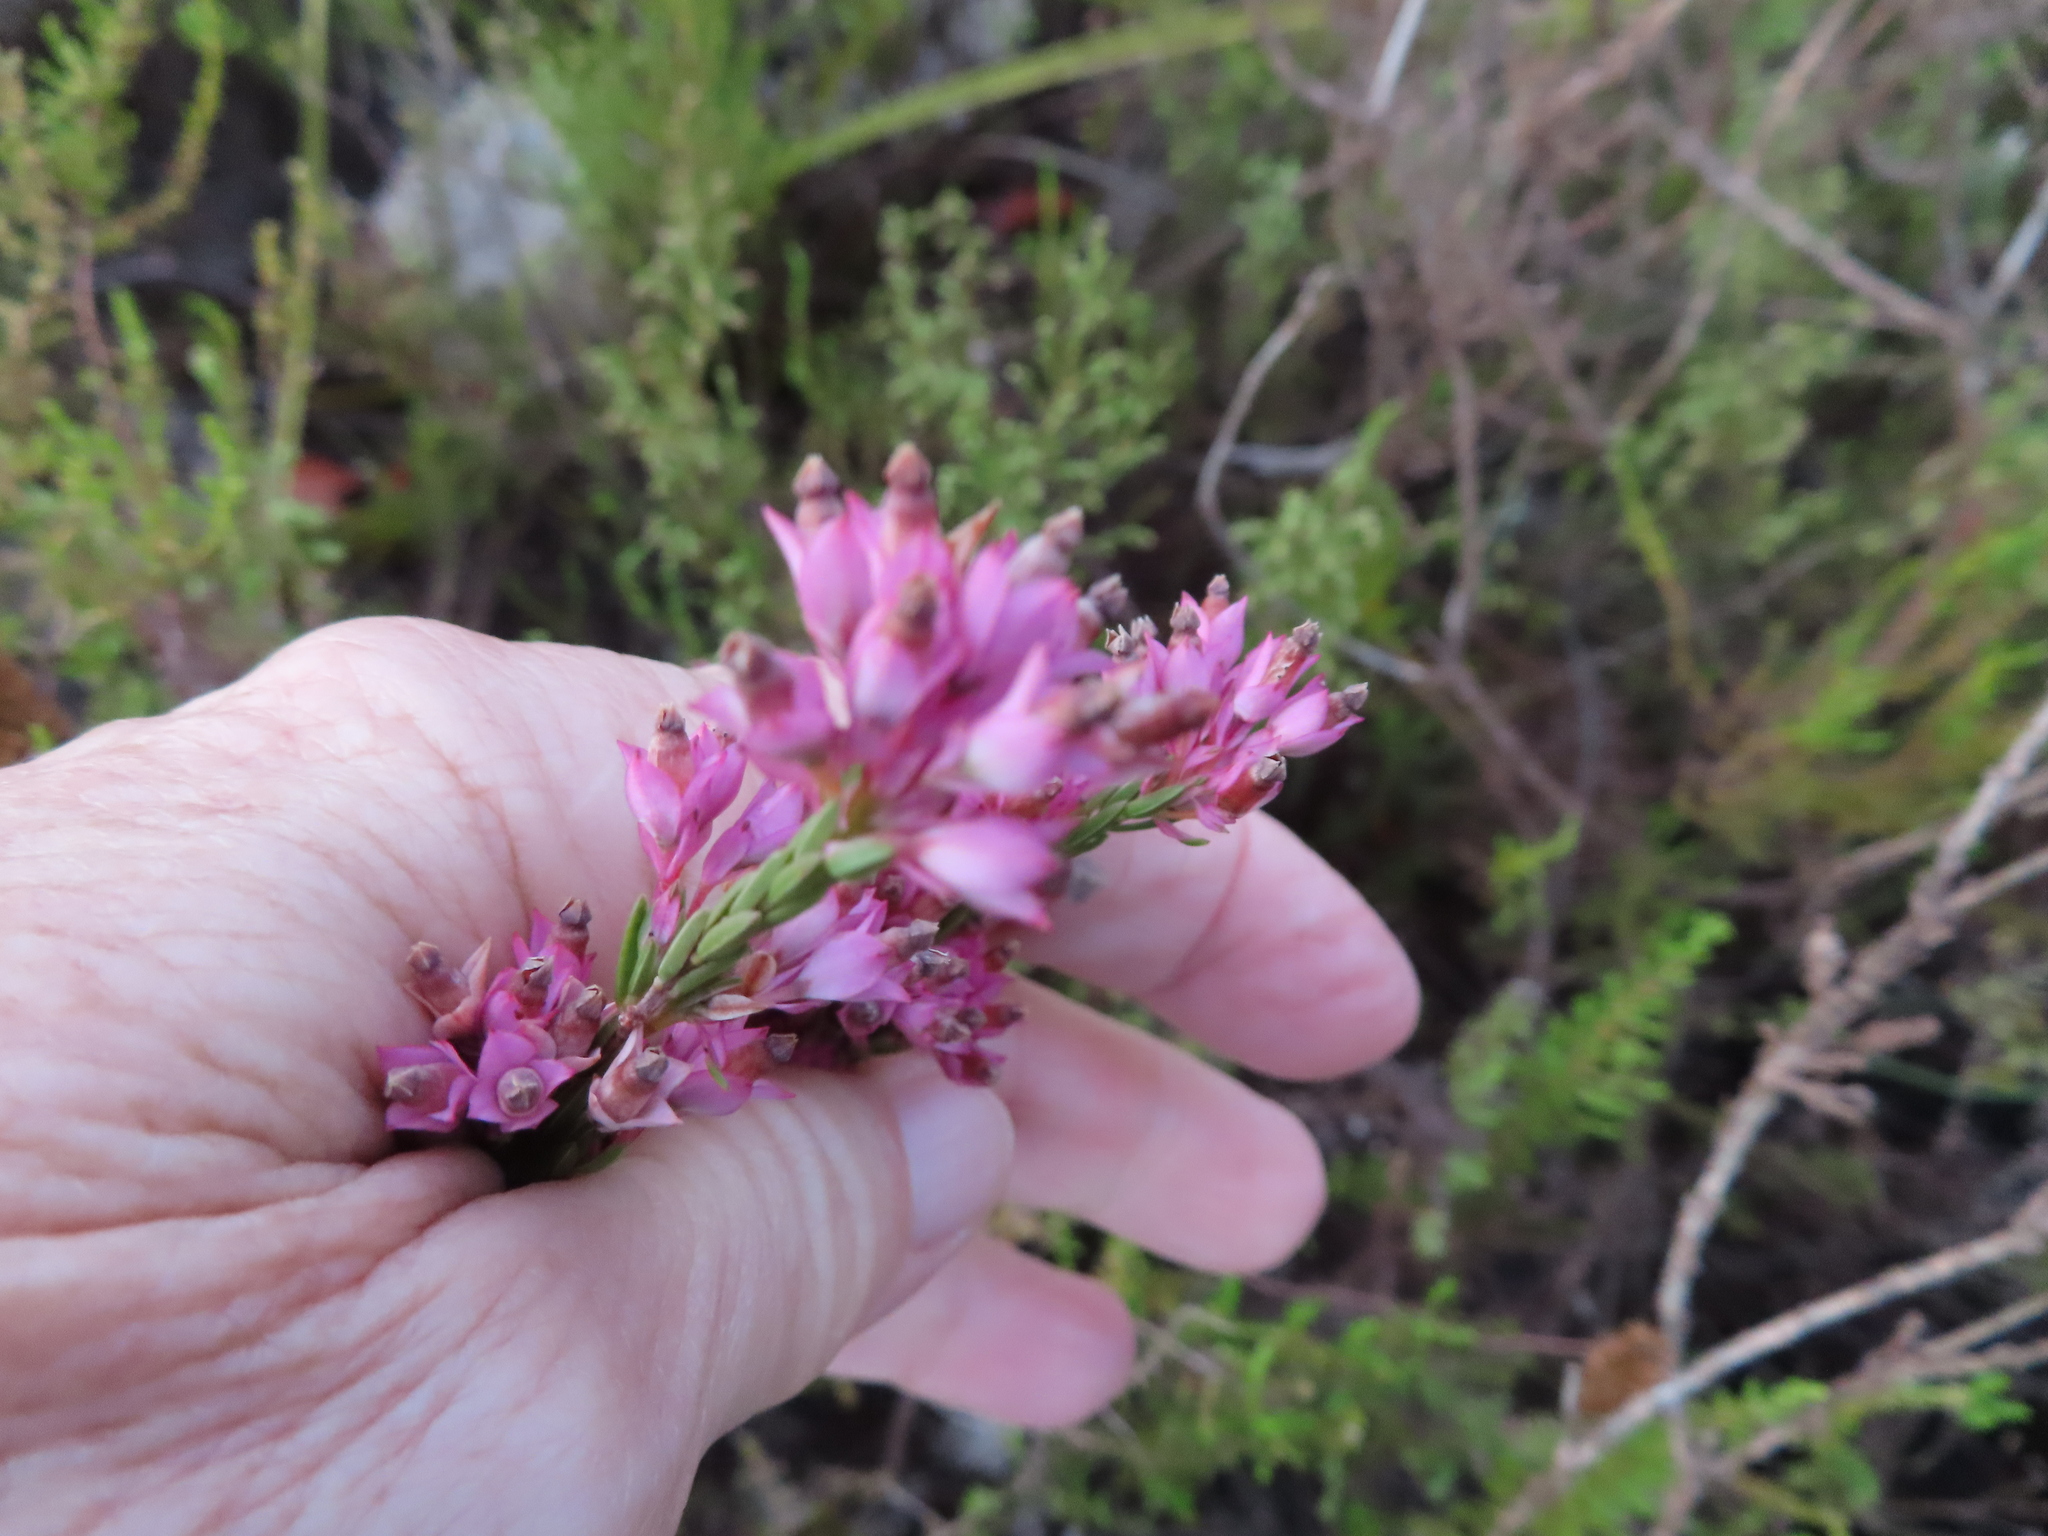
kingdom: Plantae
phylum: Tracheophyta
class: Magnoliopsida
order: Ericales
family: Ericaceae
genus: Erica
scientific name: Erica corifolia
